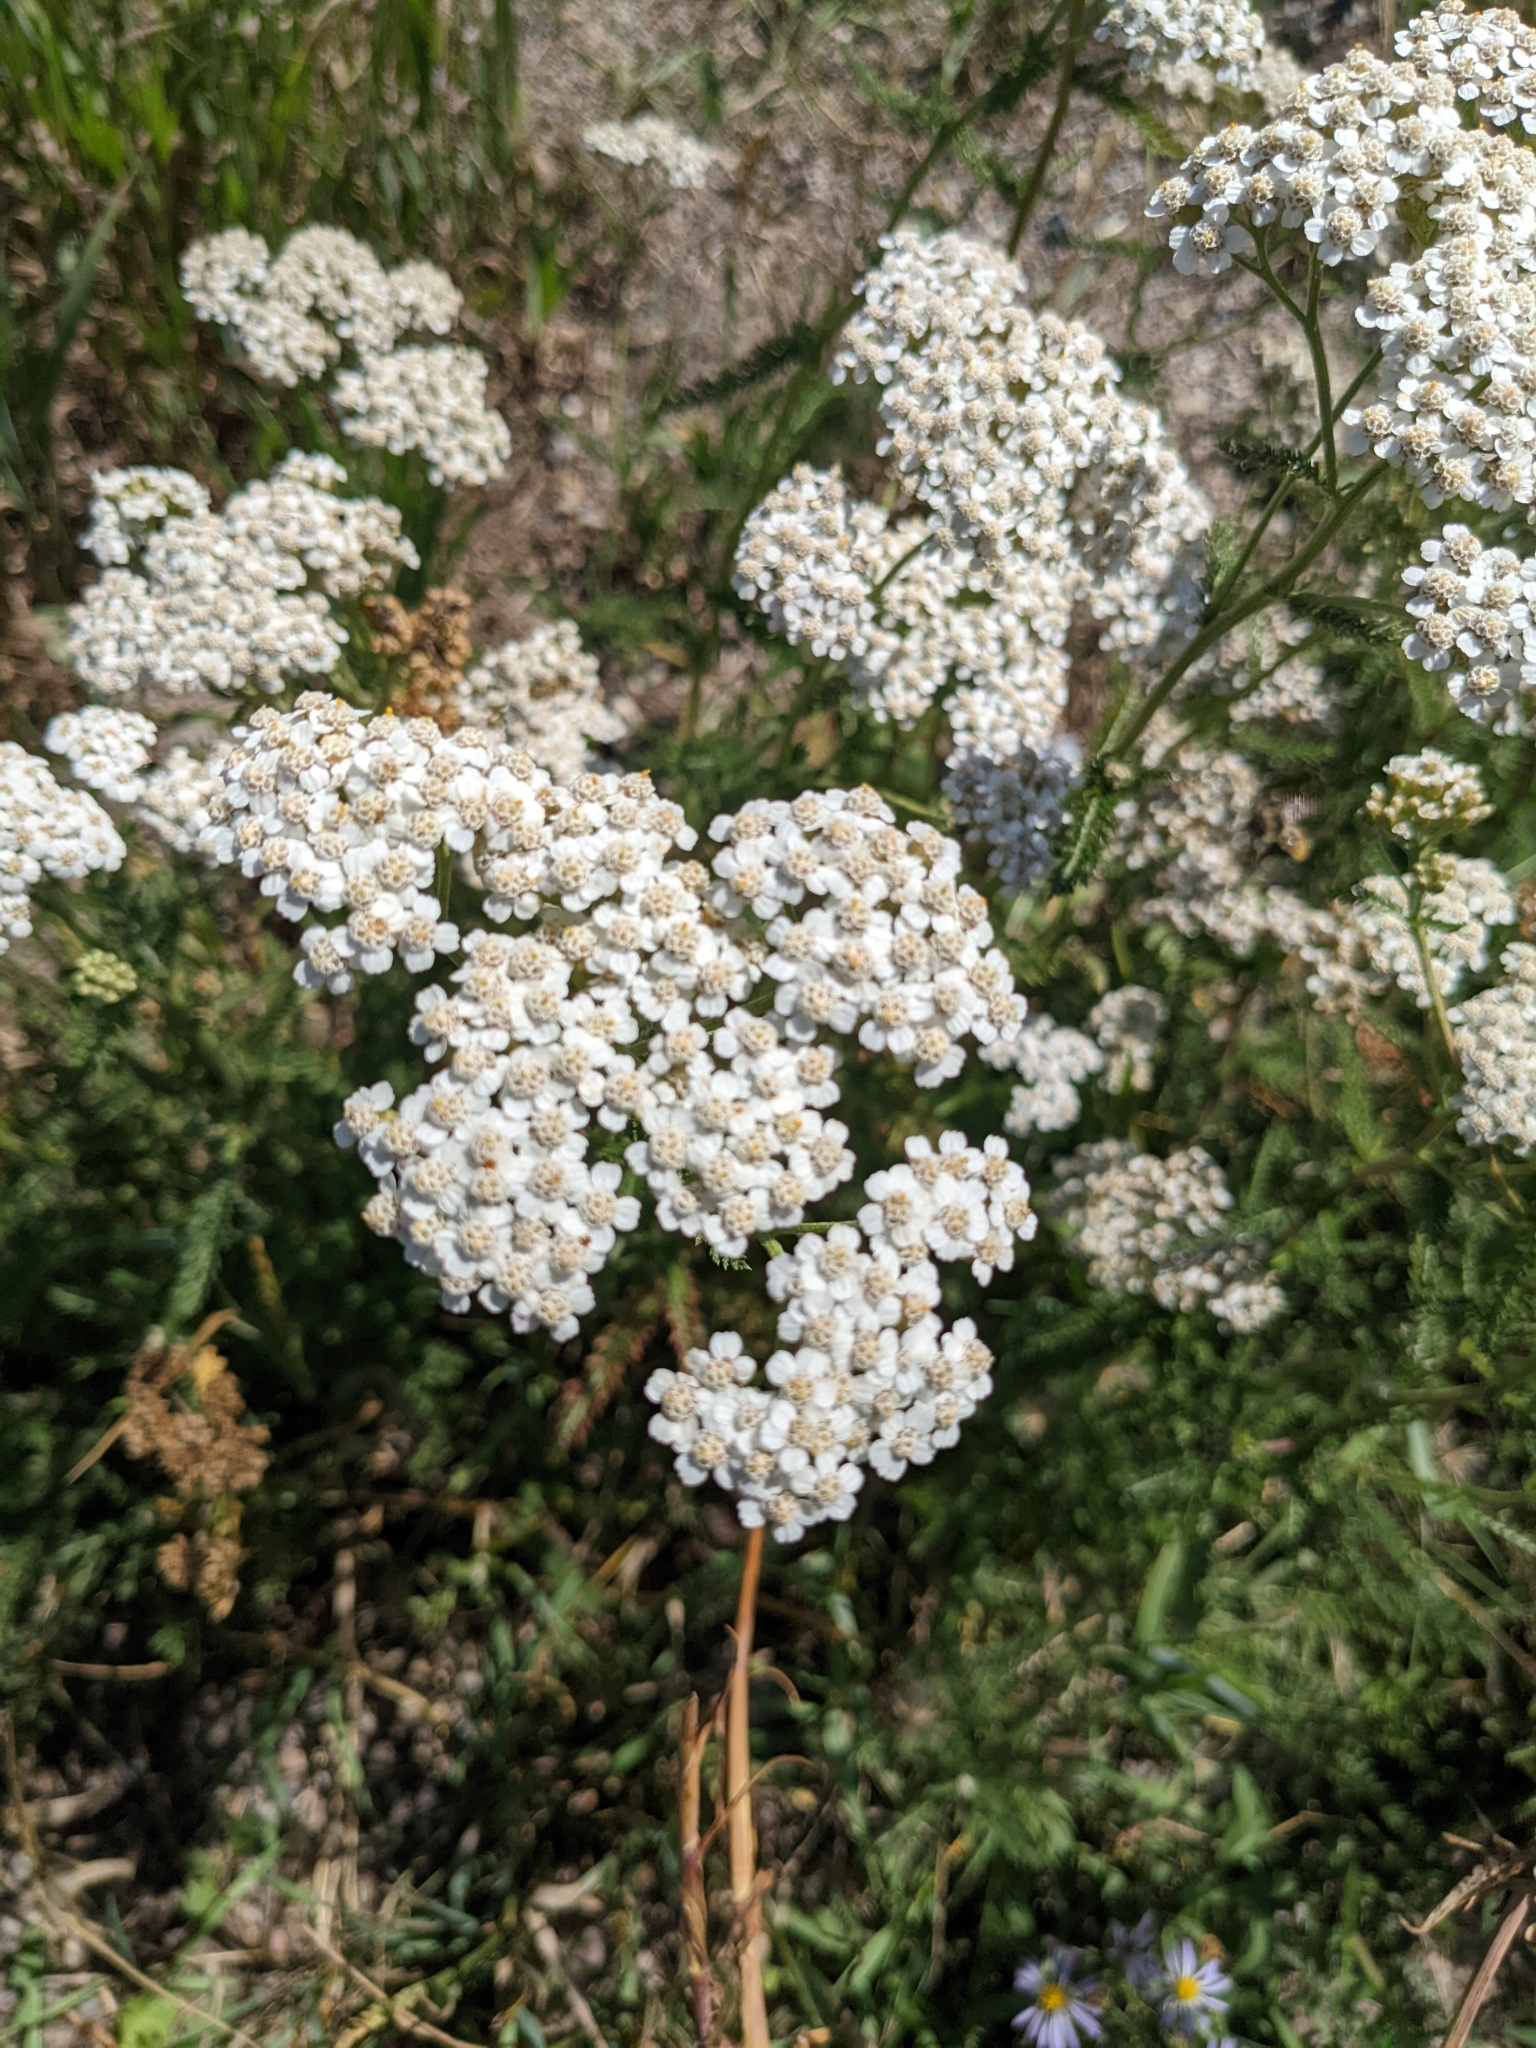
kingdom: Plantae
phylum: Tracheophyta
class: Magnoliopsida
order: Asterales
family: Asteraceae
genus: Achillea
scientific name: Achillea millefolium
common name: Yarrow
